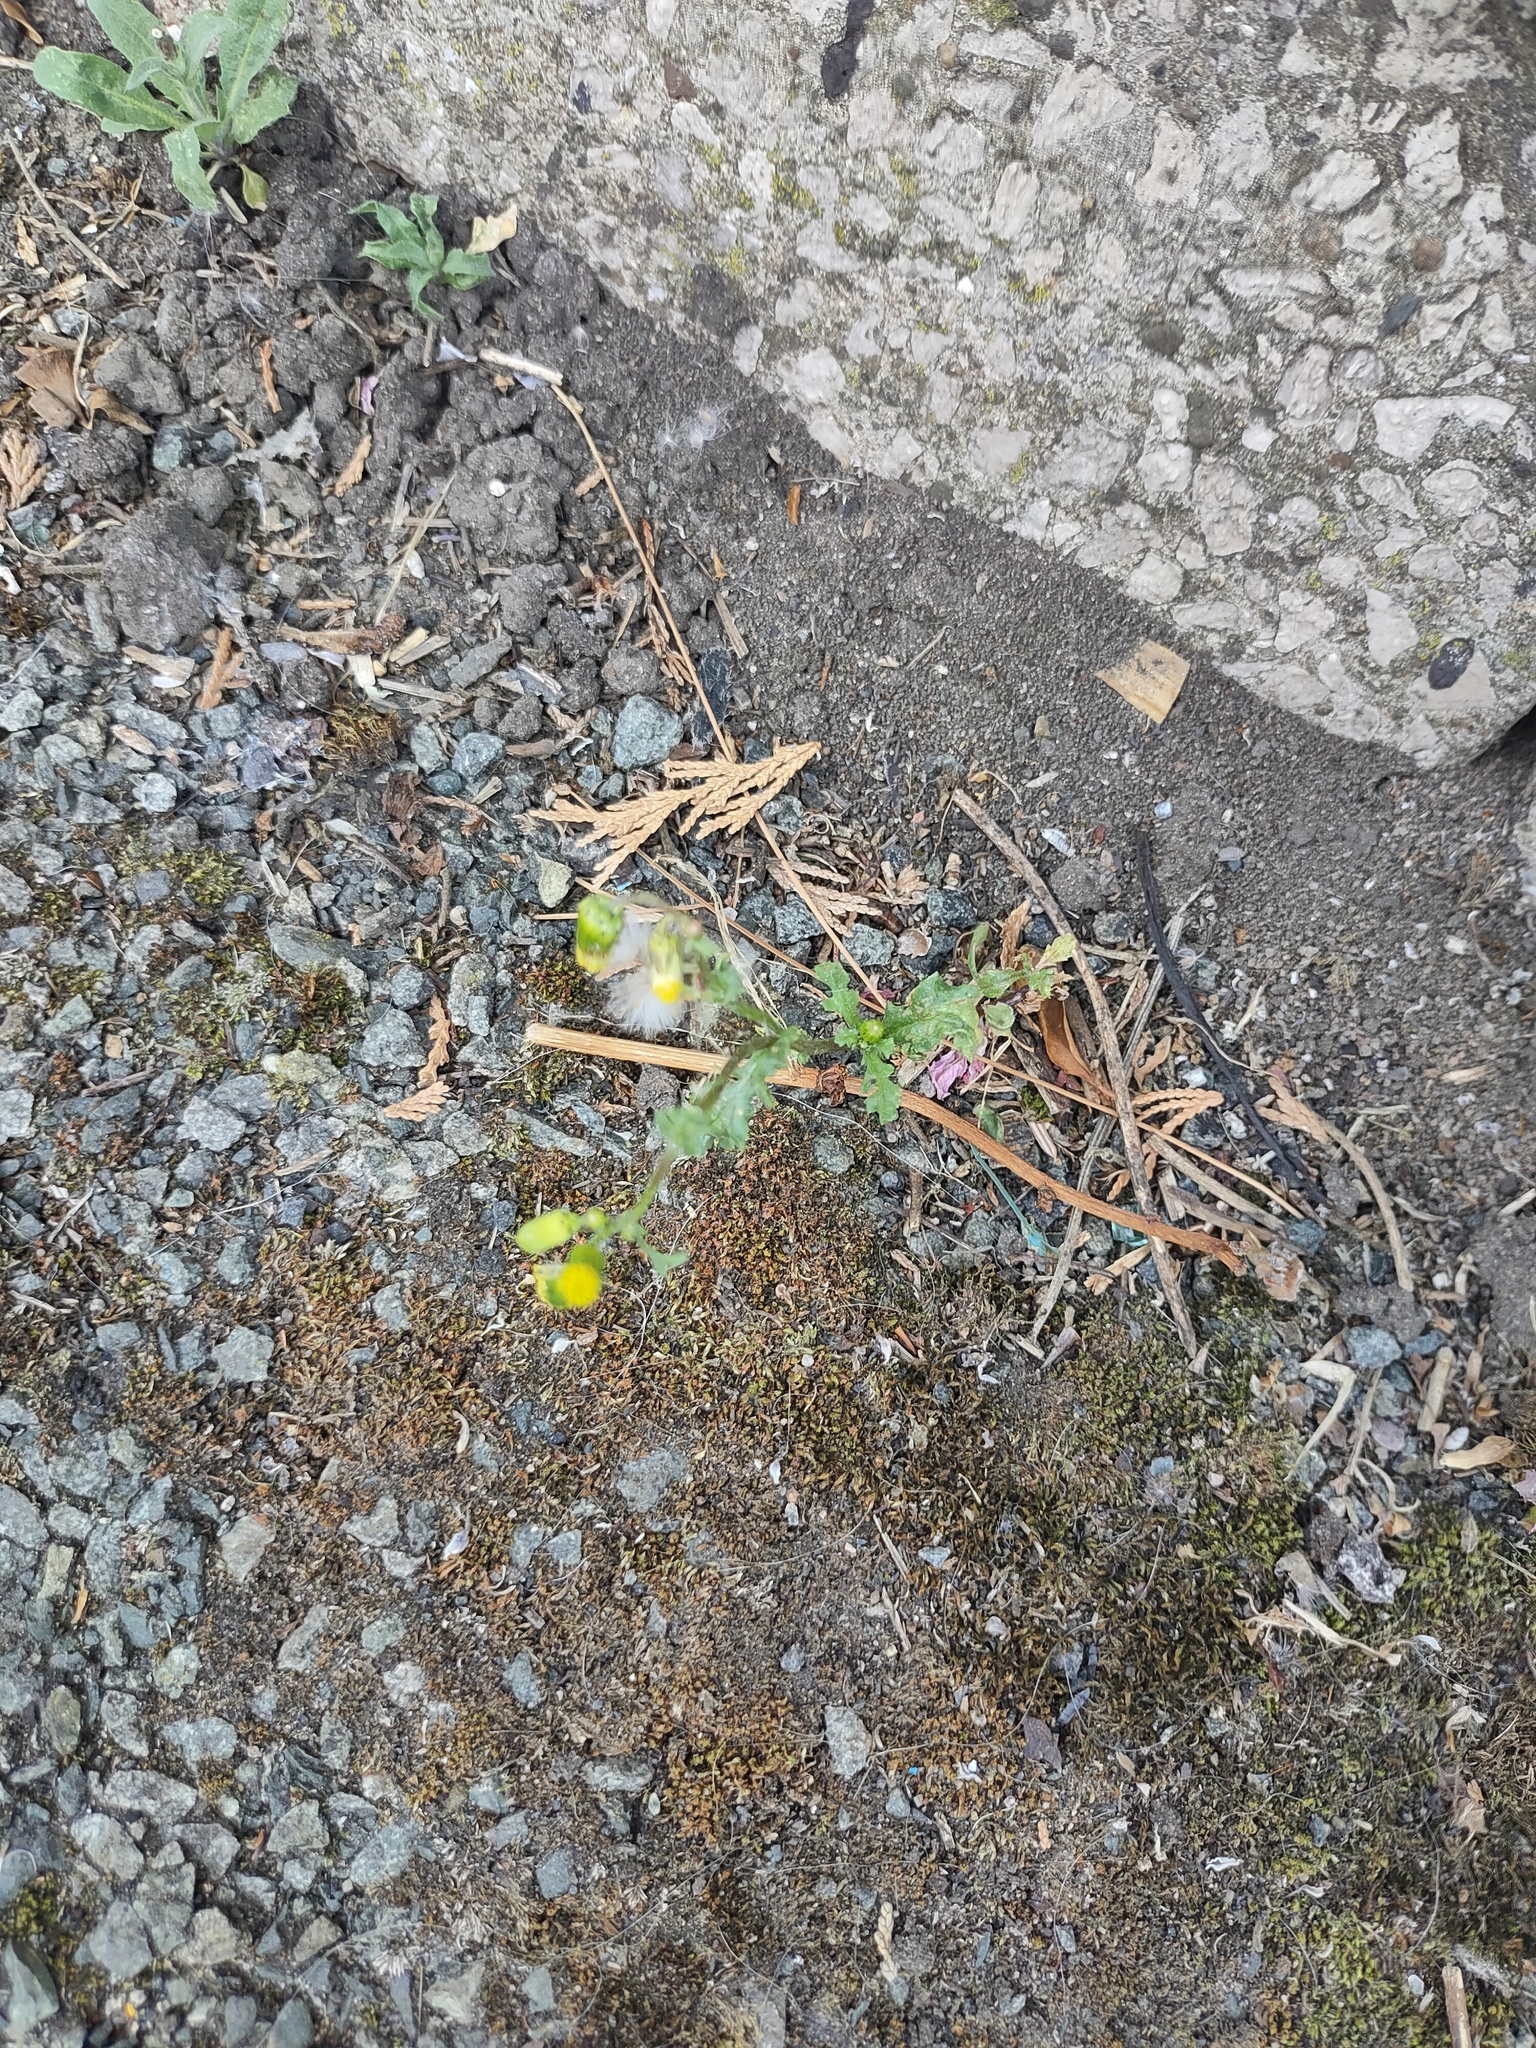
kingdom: Plantae
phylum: Tracheophyta
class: Magnoliopsida
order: Asterales
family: Asteraceae
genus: Senecio
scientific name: Senecio vulgaris
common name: Old-man-in-the-spring
